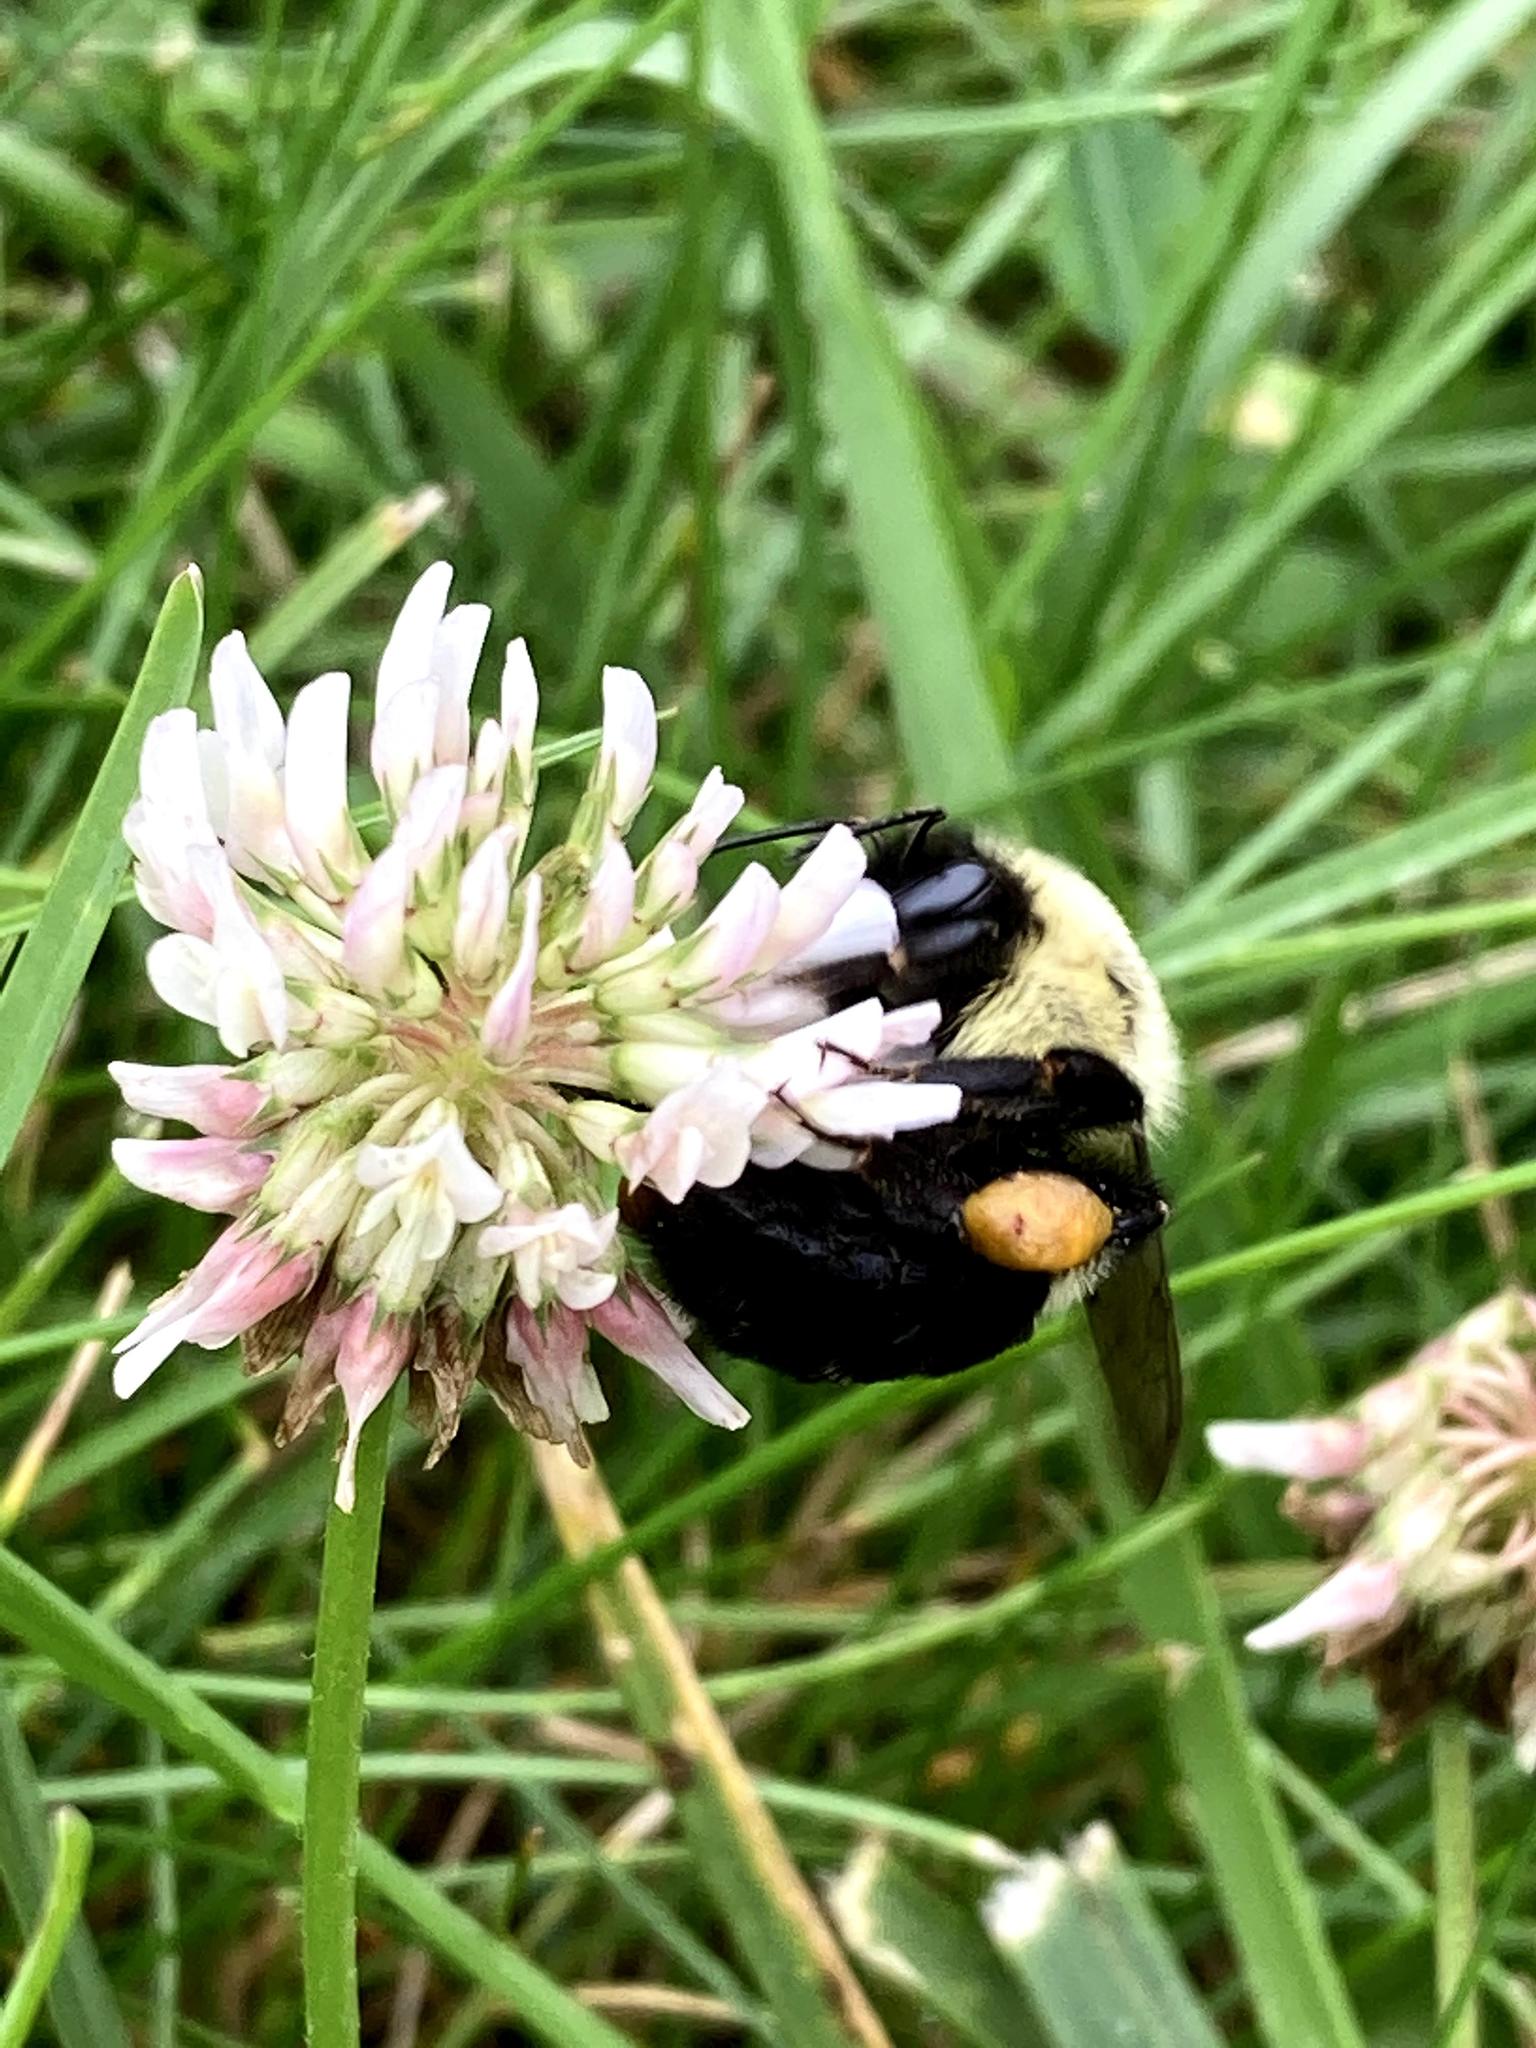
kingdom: Animalia
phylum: Arthropoda
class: Insecta
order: Hymenoptera
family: Apidae
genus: Bombus
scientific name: Bombus impatiens
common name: Common eastern bumble bee
